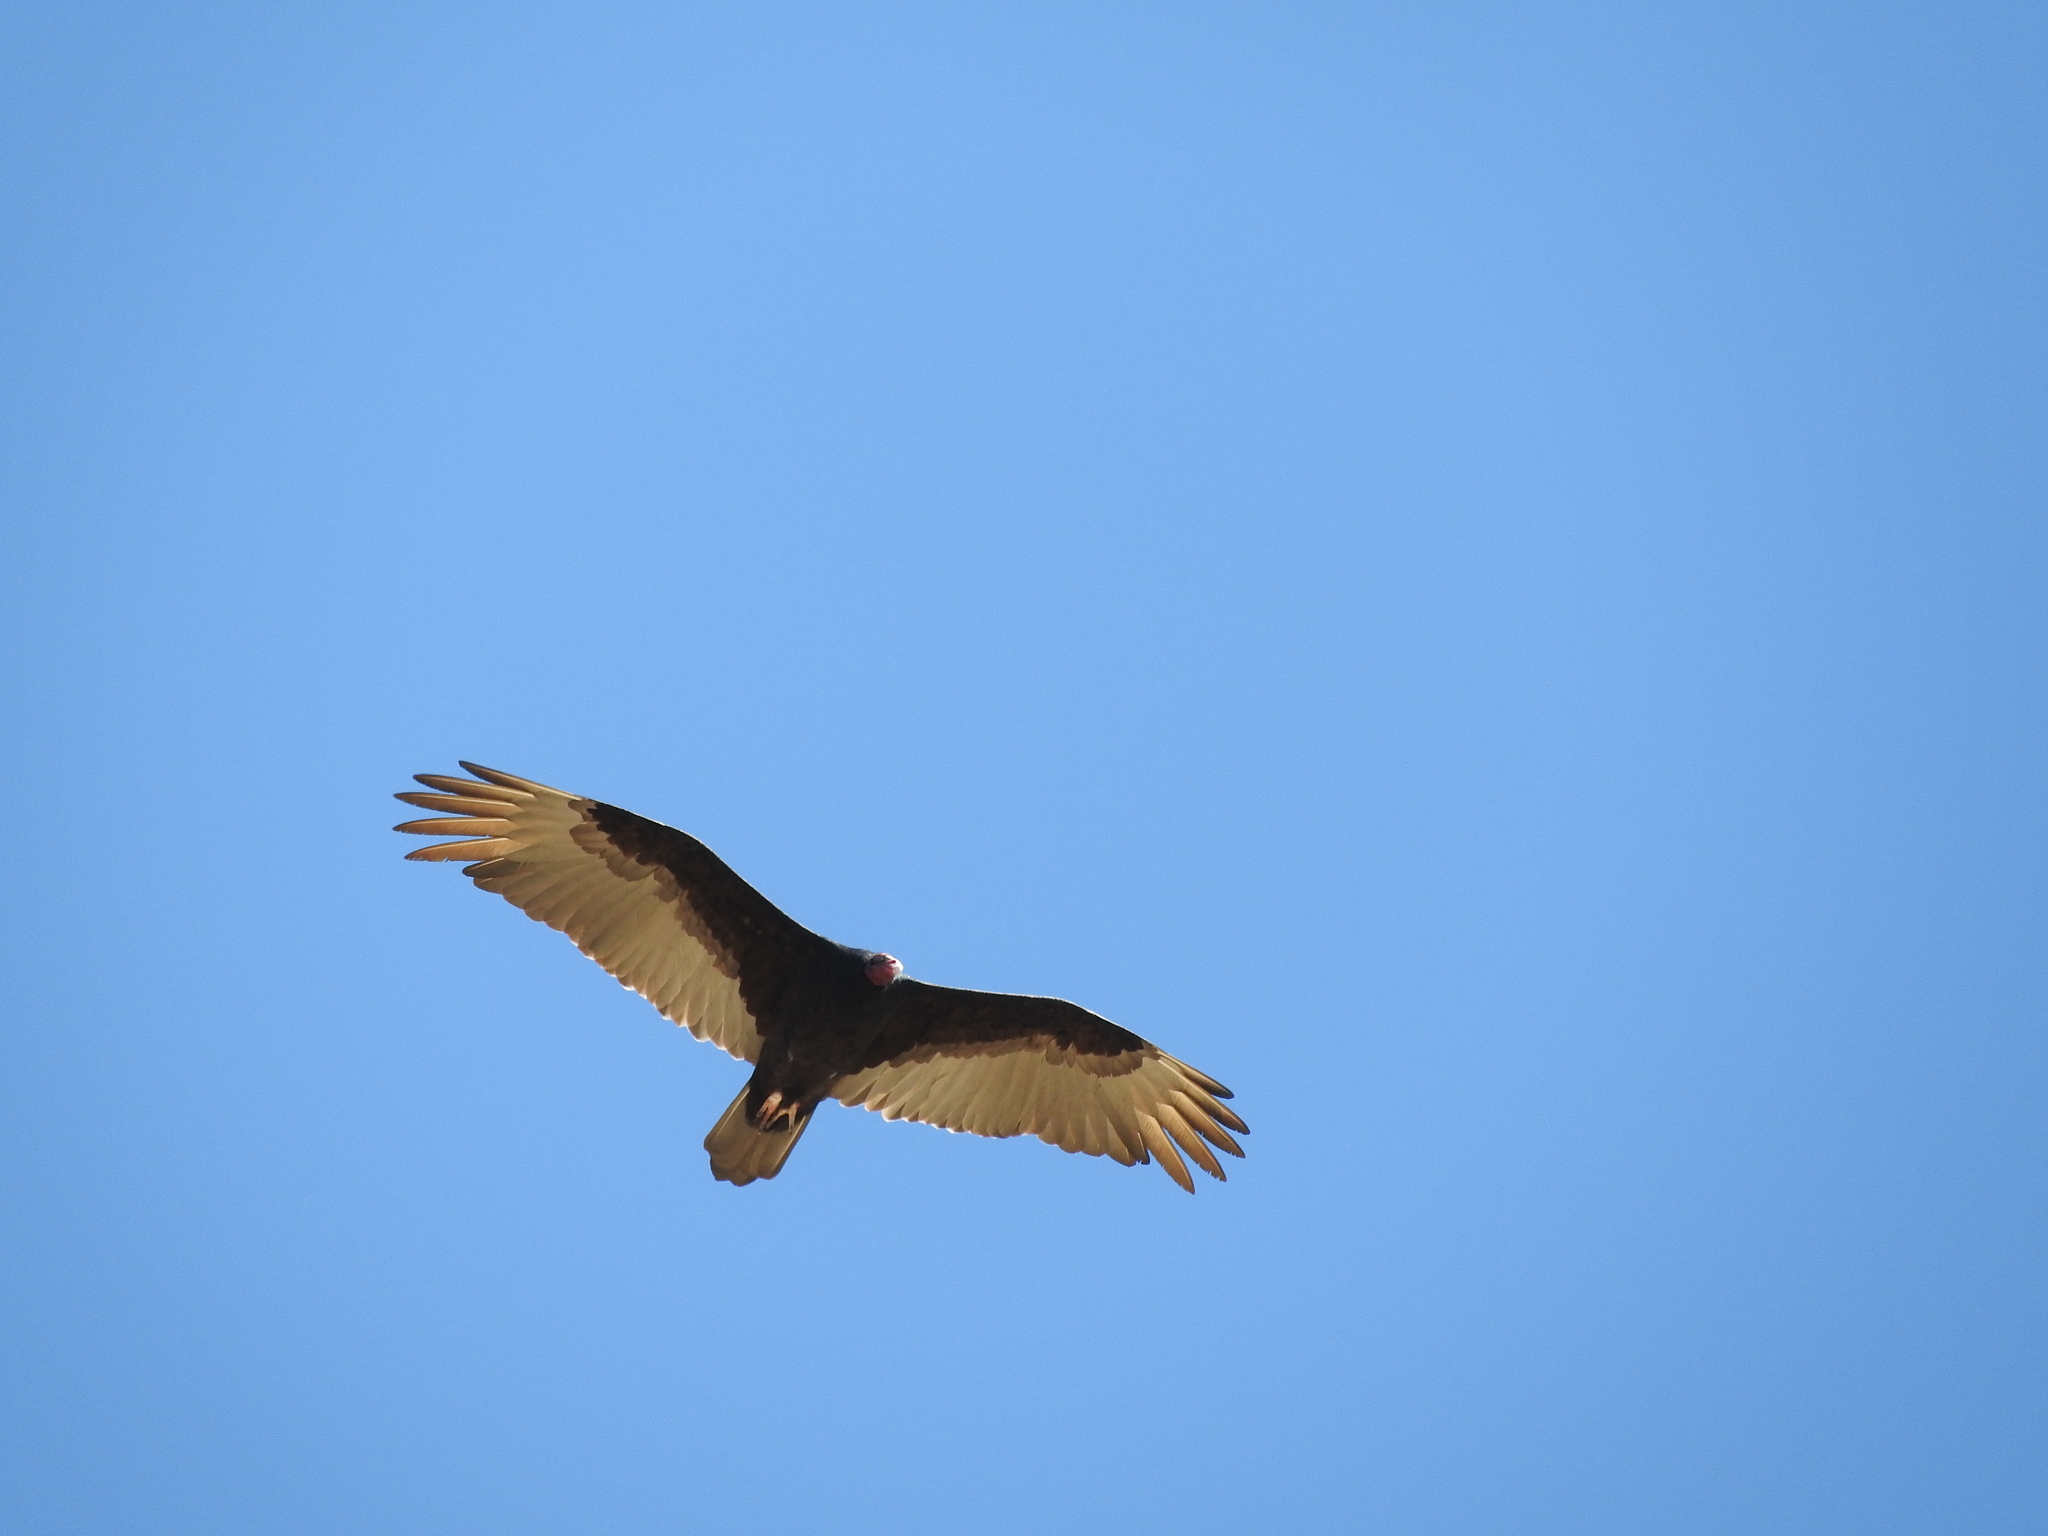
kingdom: Animalia
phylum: Chordata
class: Aves
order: Accipitriformes
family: Cathartidae
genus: Cathartes
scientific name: Cathartes aura
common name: Turkey vulture
